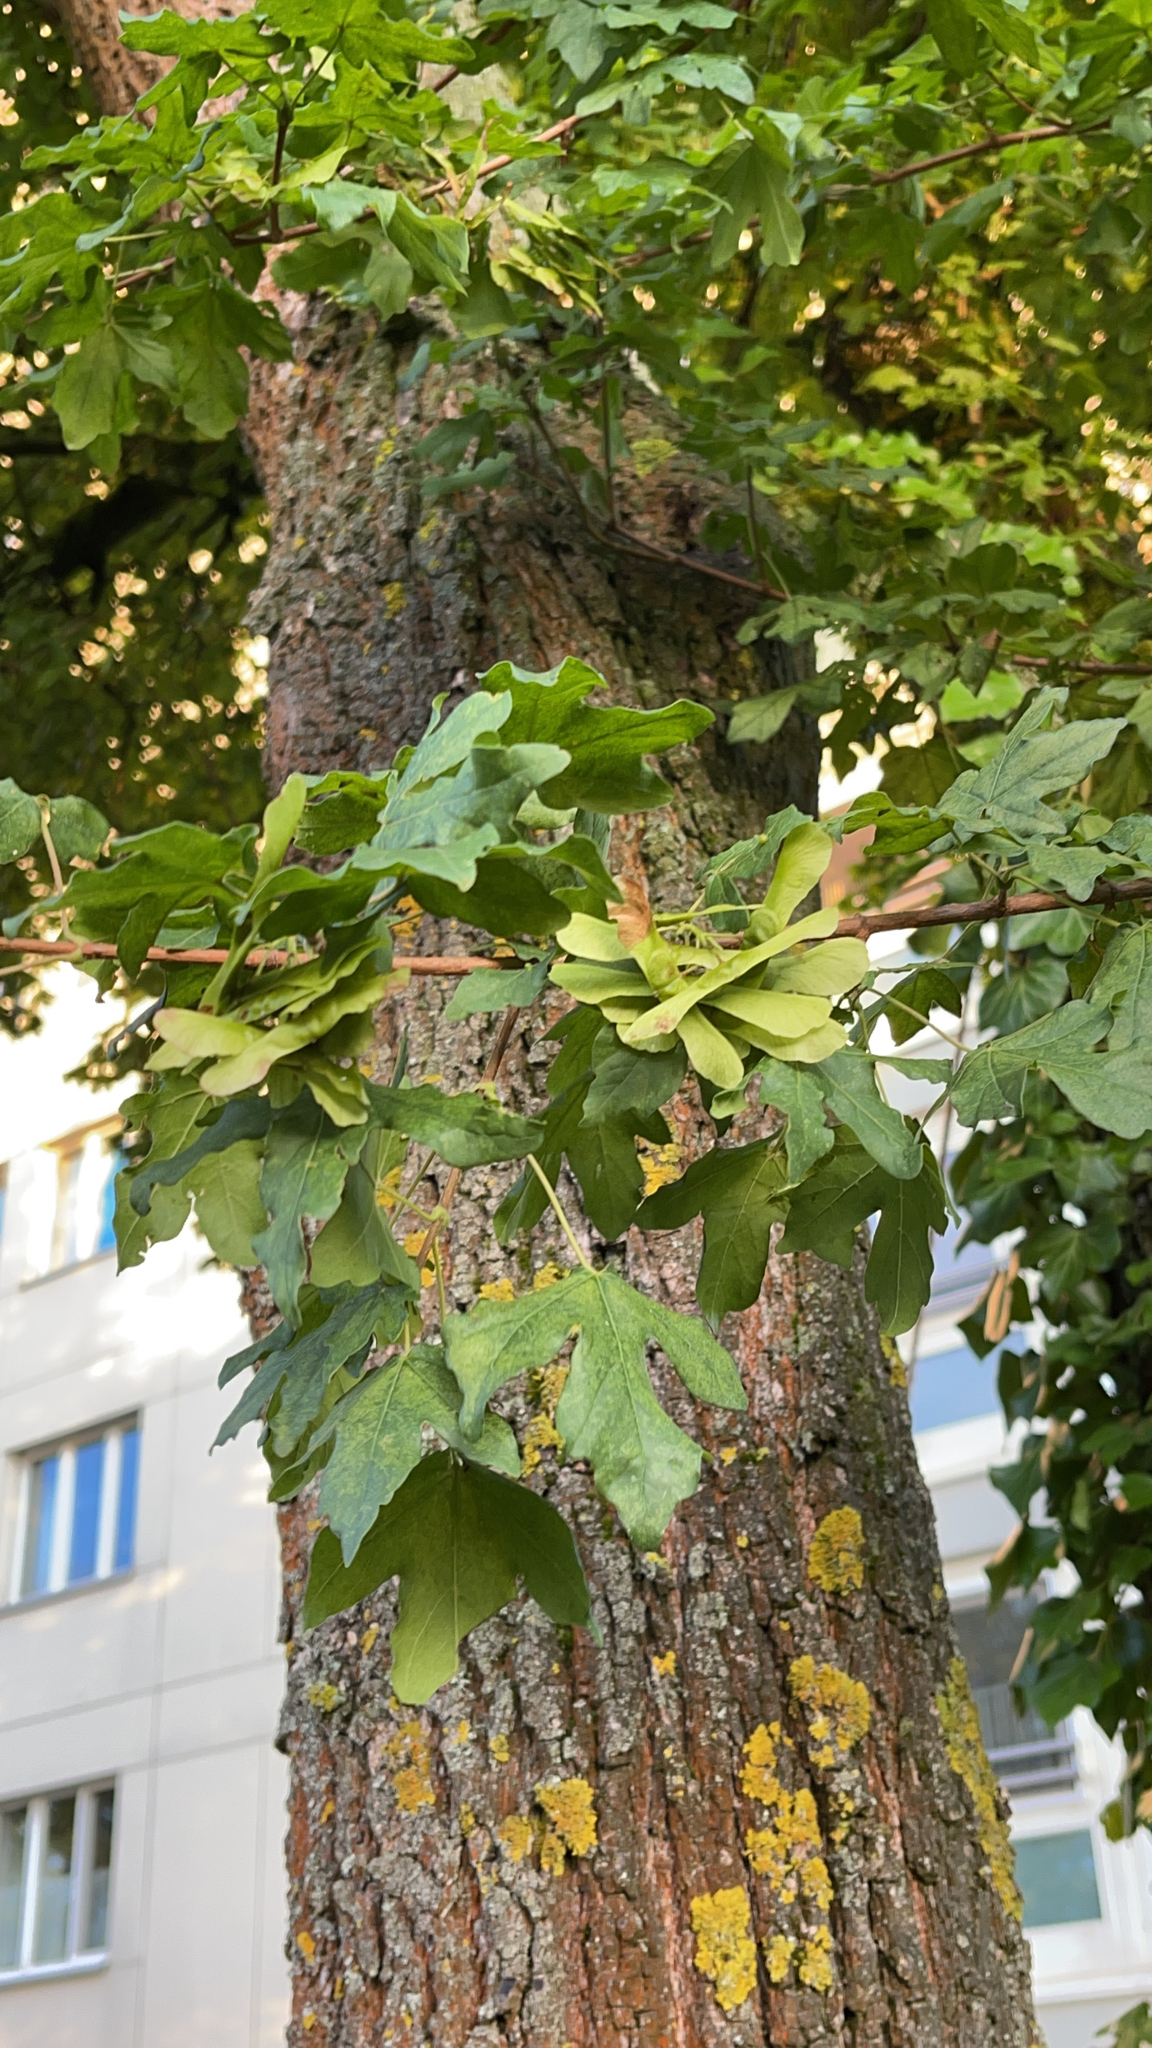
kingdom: Plantae
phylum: Tracheophyta
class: Magnoliopsida
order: Sapindales
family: Sapindaceae
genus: Acer
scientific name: Acer campestre
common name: Field maple
